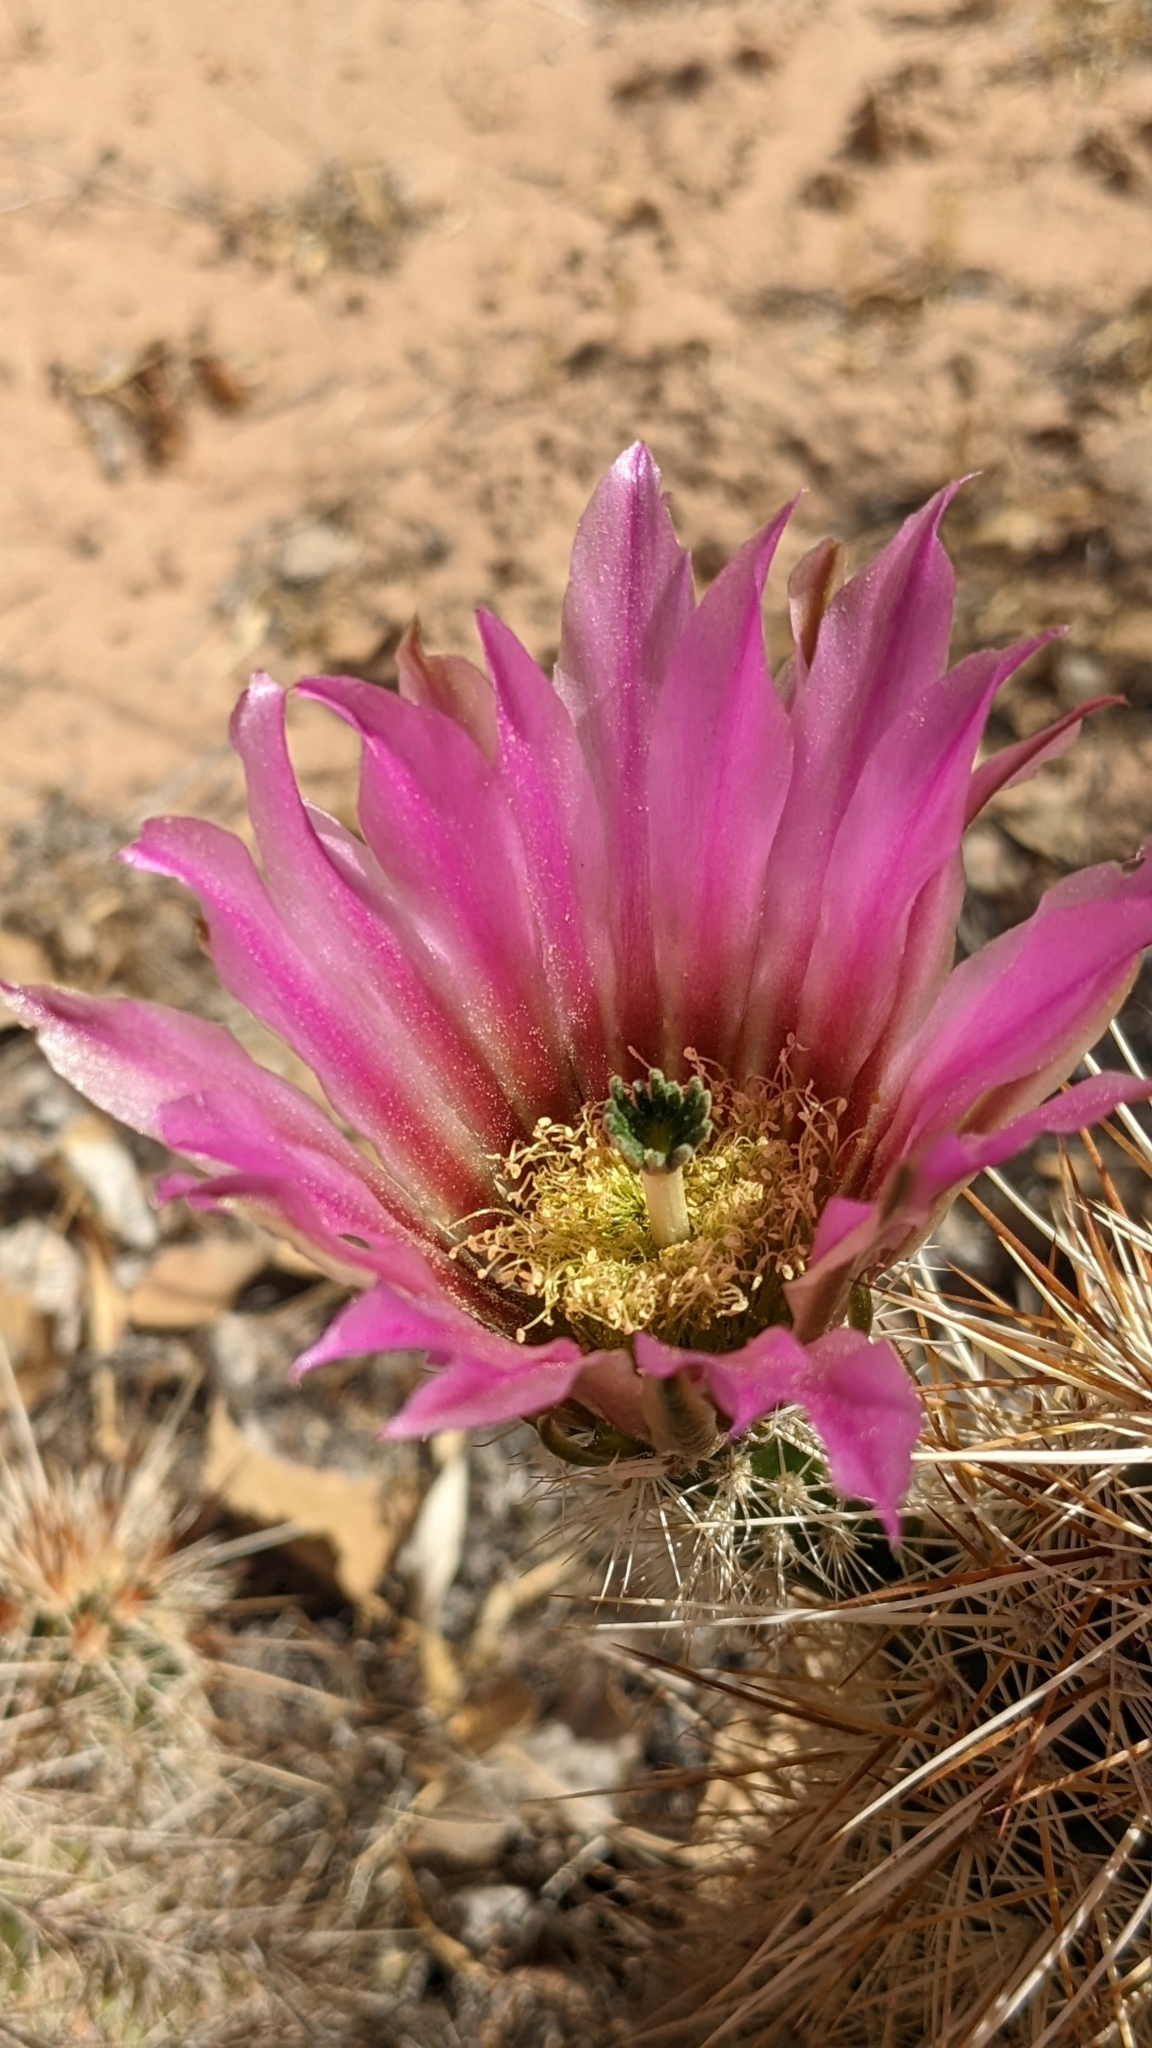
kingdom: Plantae
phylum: Tracheophyta
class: Magnoliopsida
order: Caryophyllales
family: Cactaceae
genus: Echinocereus
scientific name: Echinocereus engelmannii
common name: Engelmann's hedgehog cactus
